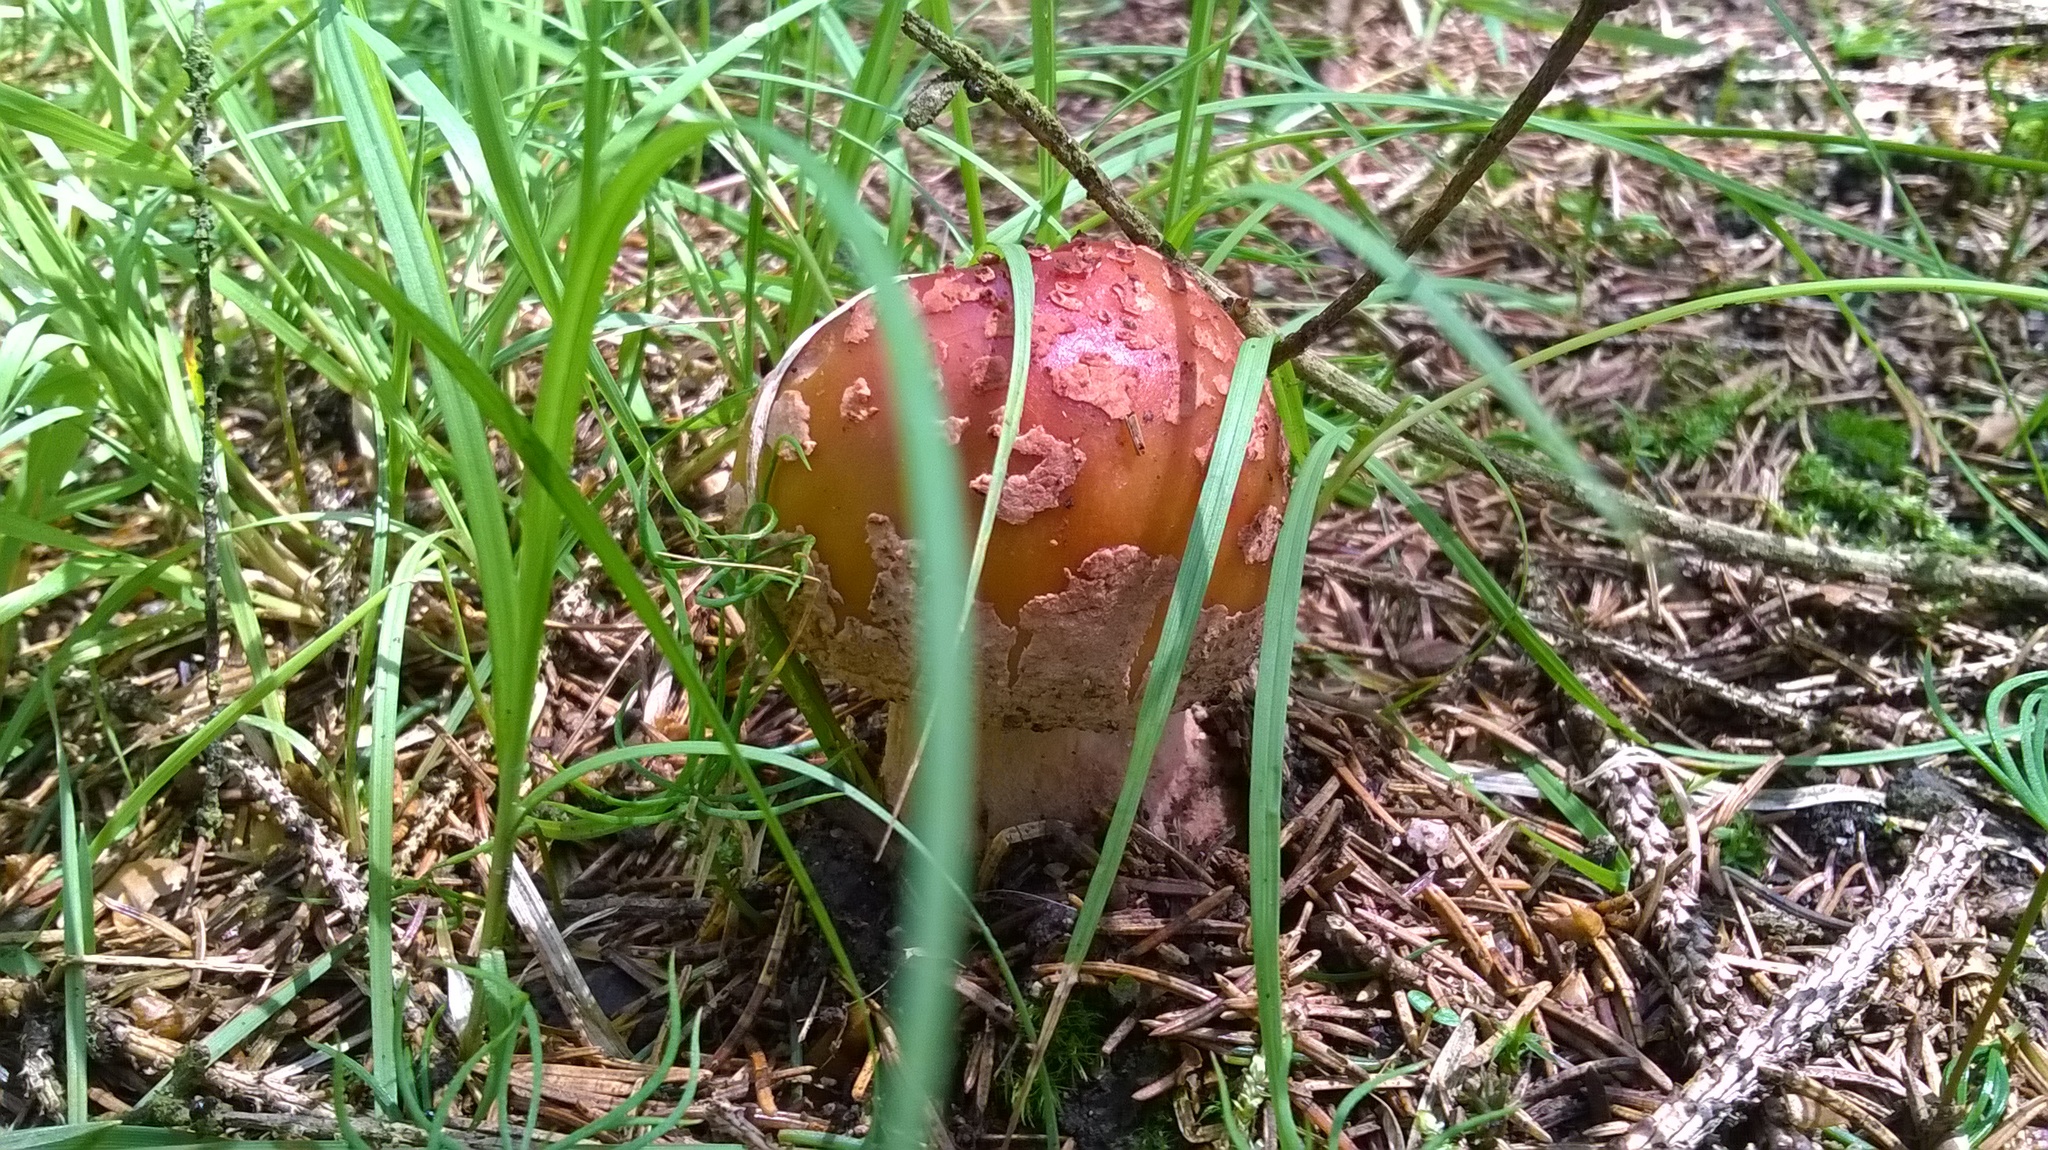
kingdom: Fungi
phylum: Basidiomycota
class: Agaricomycetes
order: Agaricales
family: Amanitaceae
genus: Amanita
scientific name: Amanita rubescens
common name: Blusher
